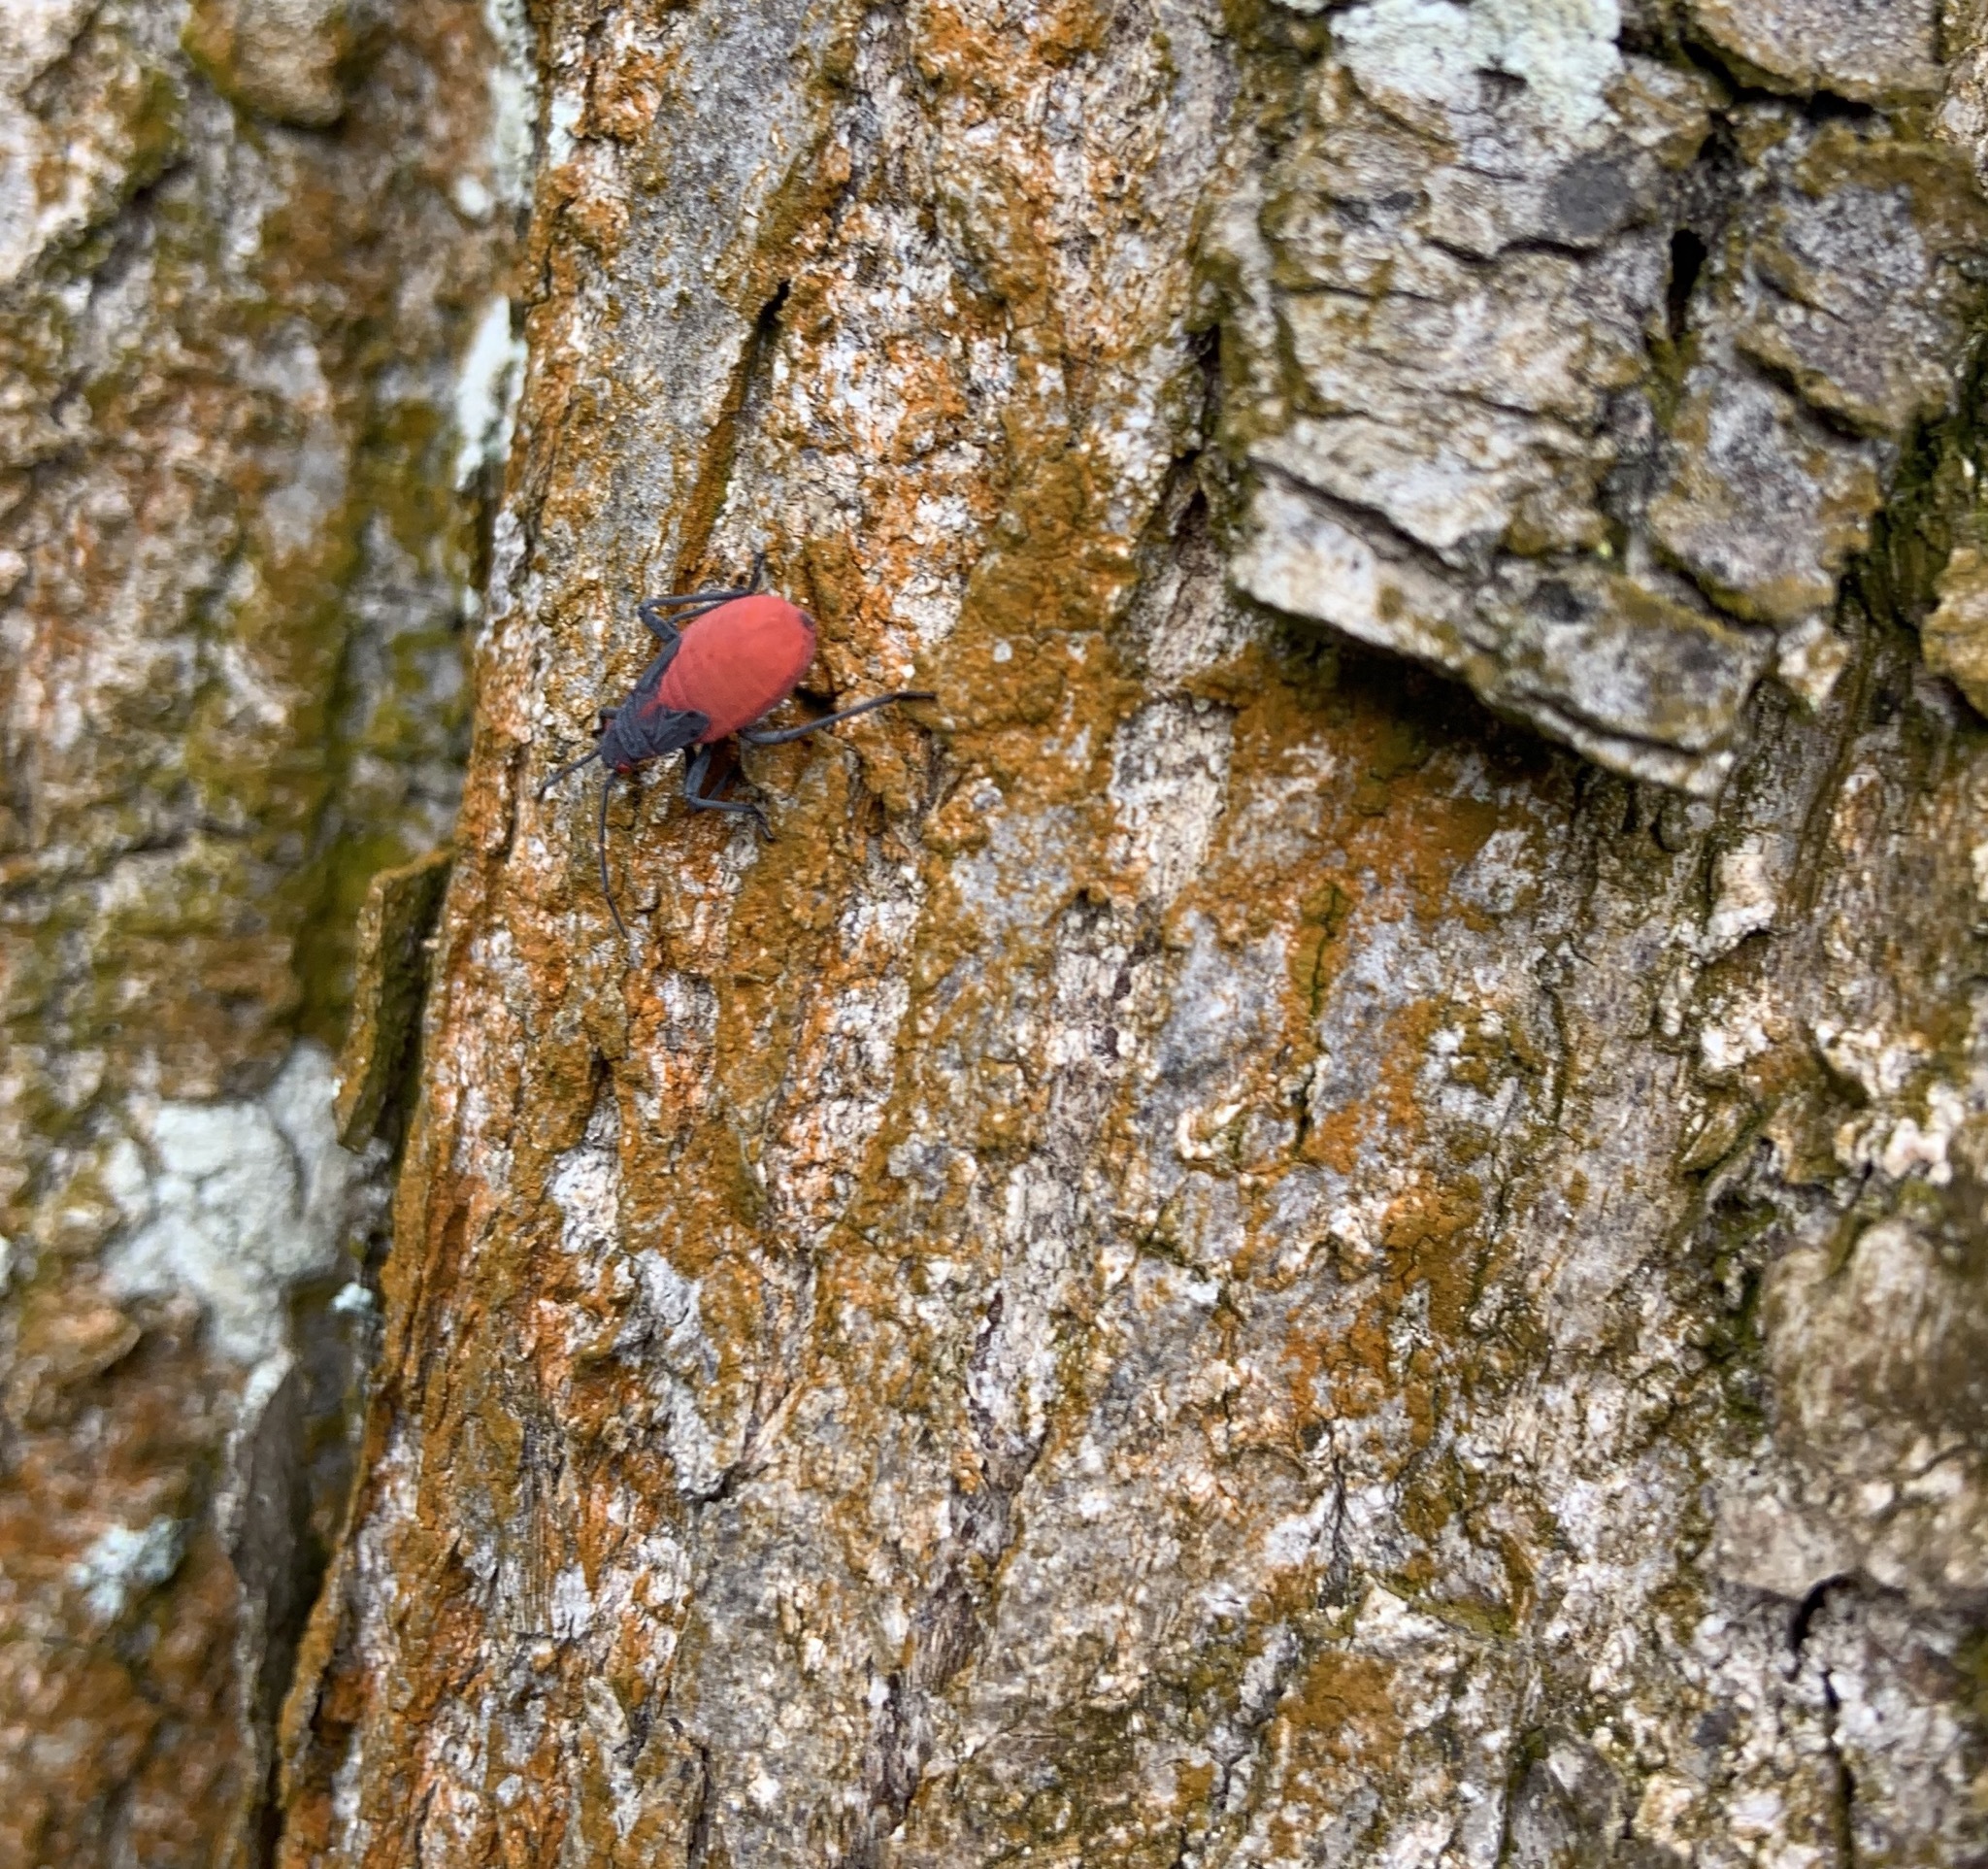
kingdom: Animalia
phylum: Arthropoda
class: Insecta
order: Hemiptera
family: Rhopalidae
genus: Jadera
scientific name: Jadera haematoloma
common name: Red-shouldered bug
